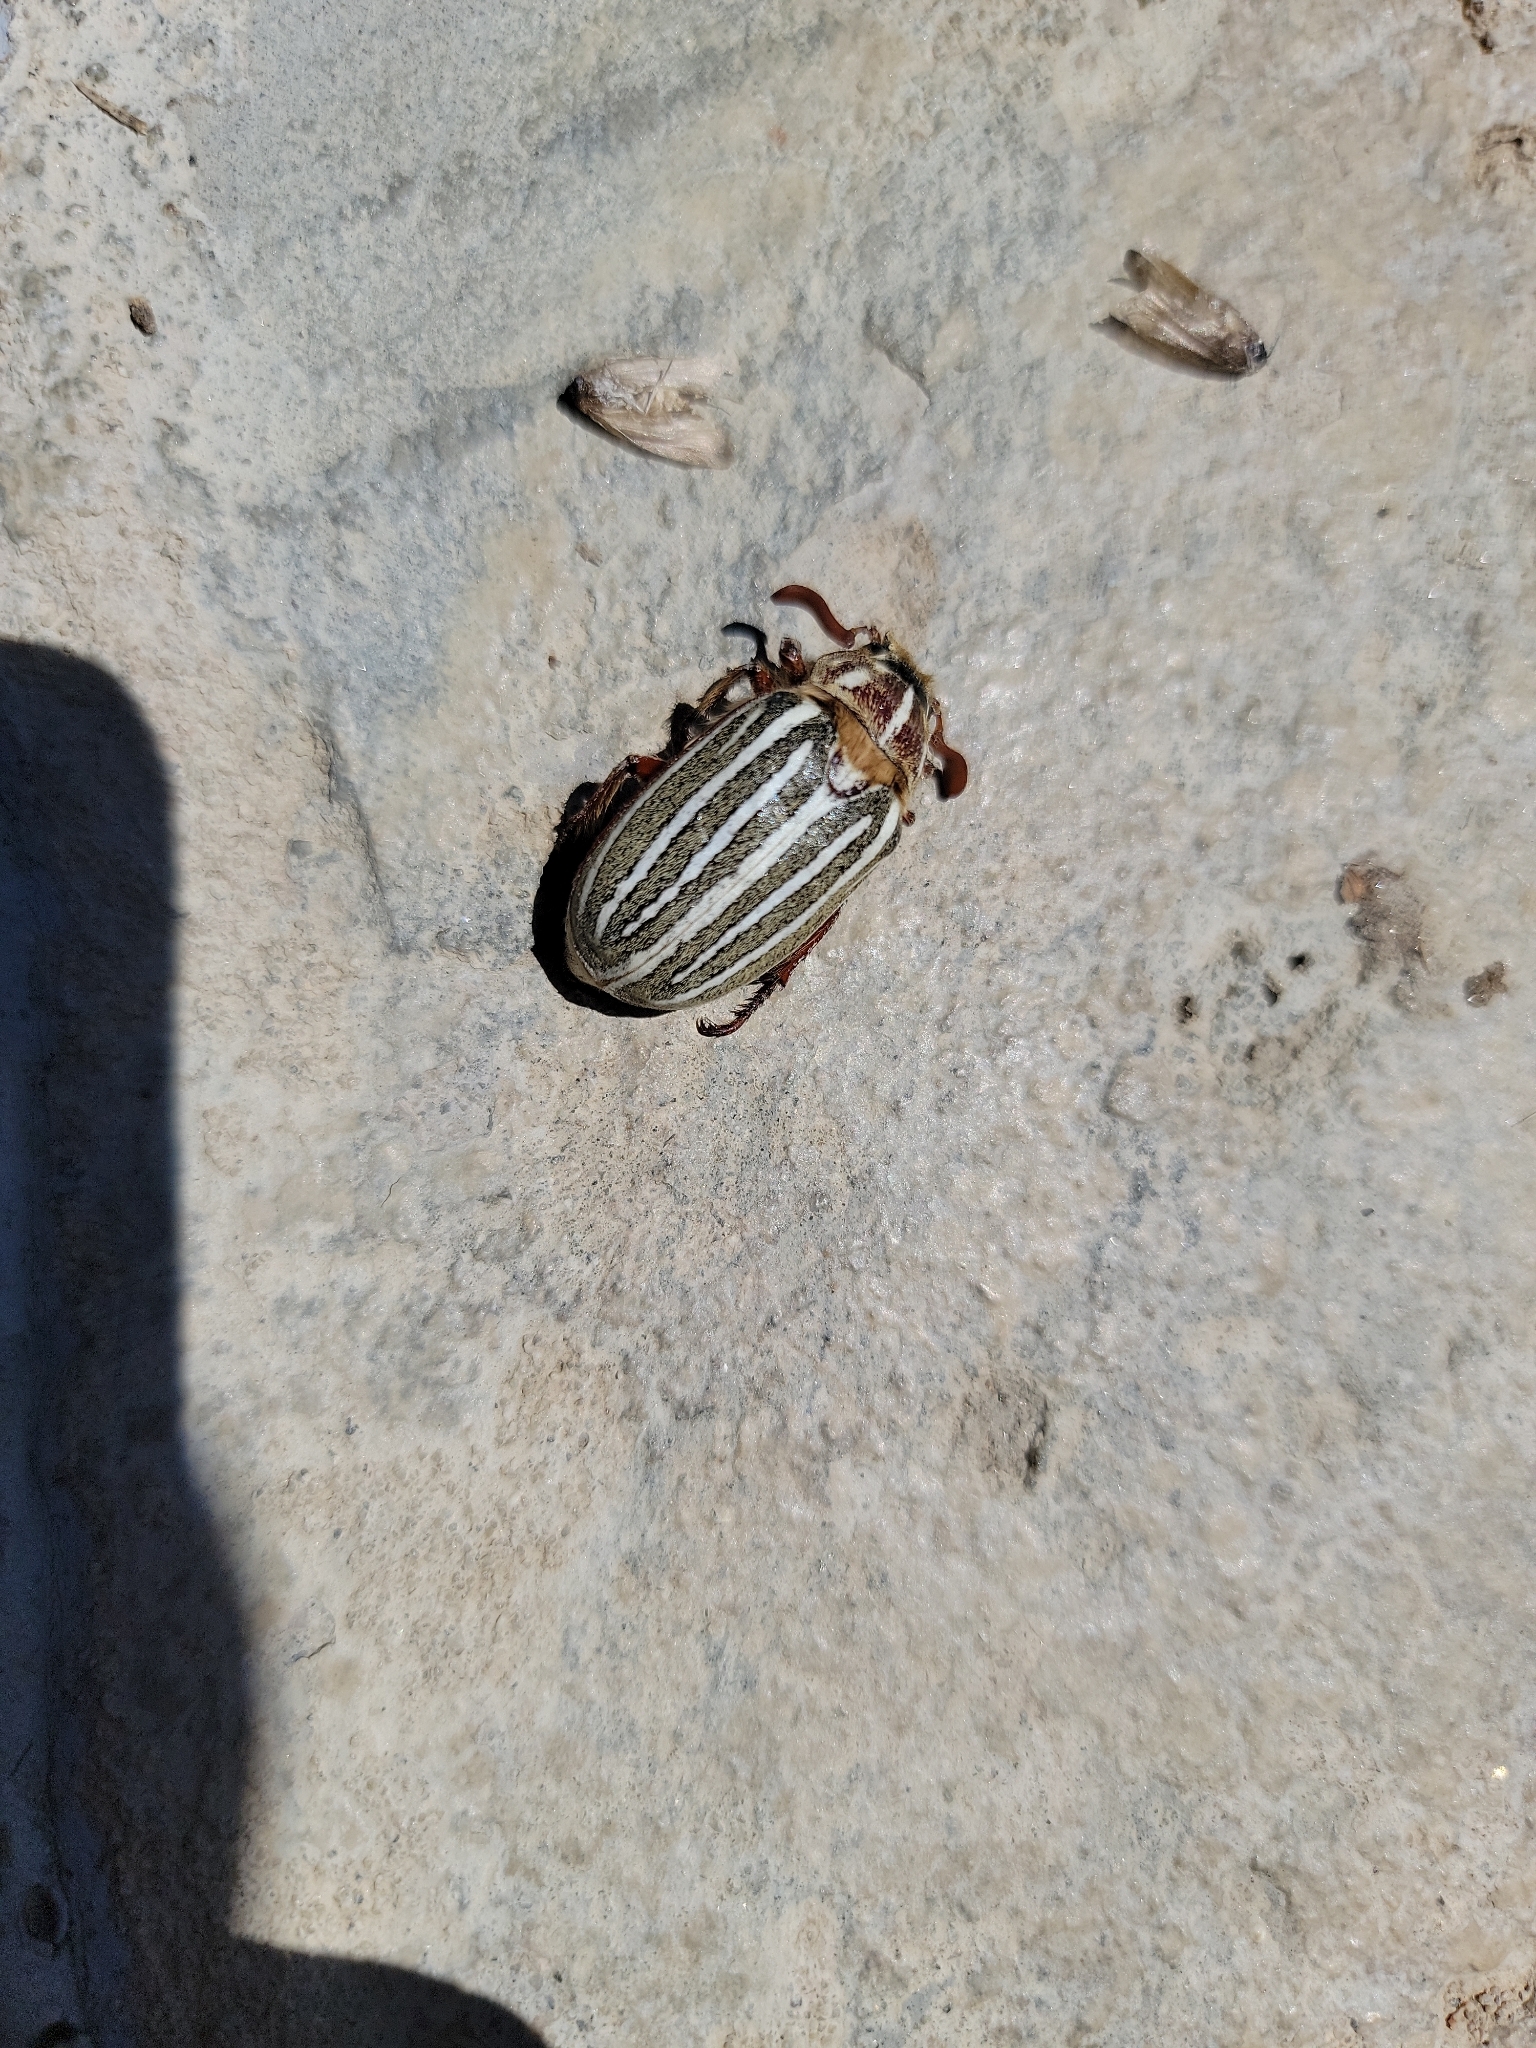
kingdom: Animalia
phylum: Arthropoda
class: Insecta
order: Coleoptera
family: Scarabaeidae
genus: Polyphylla
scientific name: Polyphylla decemlineata
